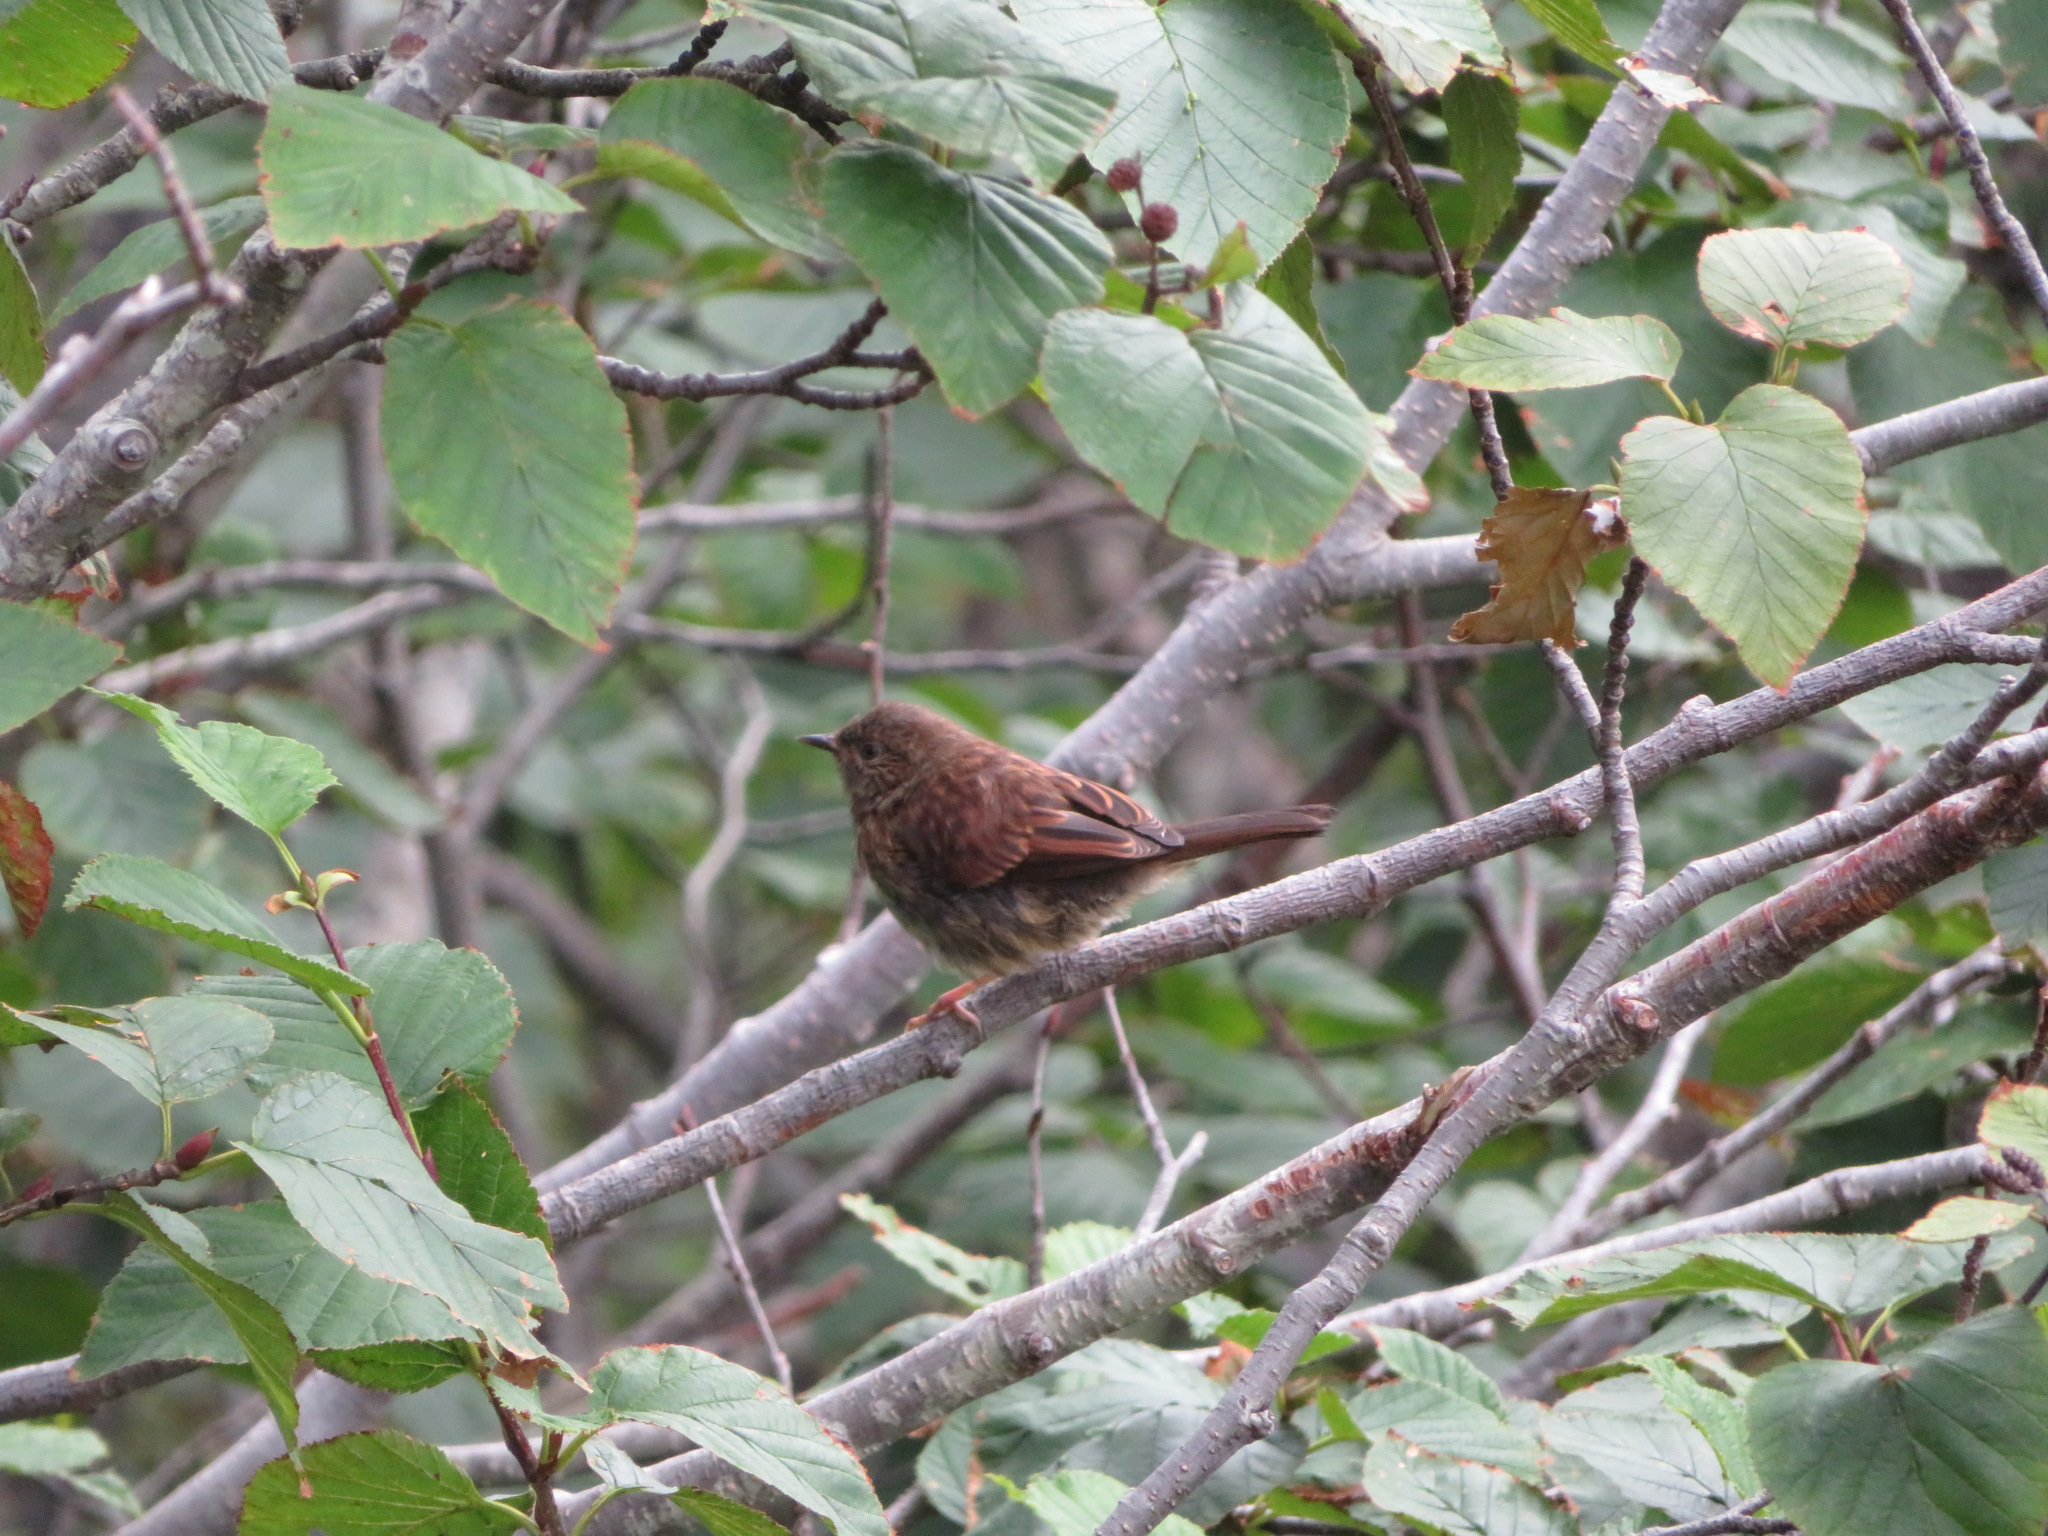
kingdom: Animalia
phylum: Chordata
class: Aves
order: Passeriformes
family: Prunellidae
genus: Prunella
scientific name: Prunella rubida
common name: Japanese accentor
